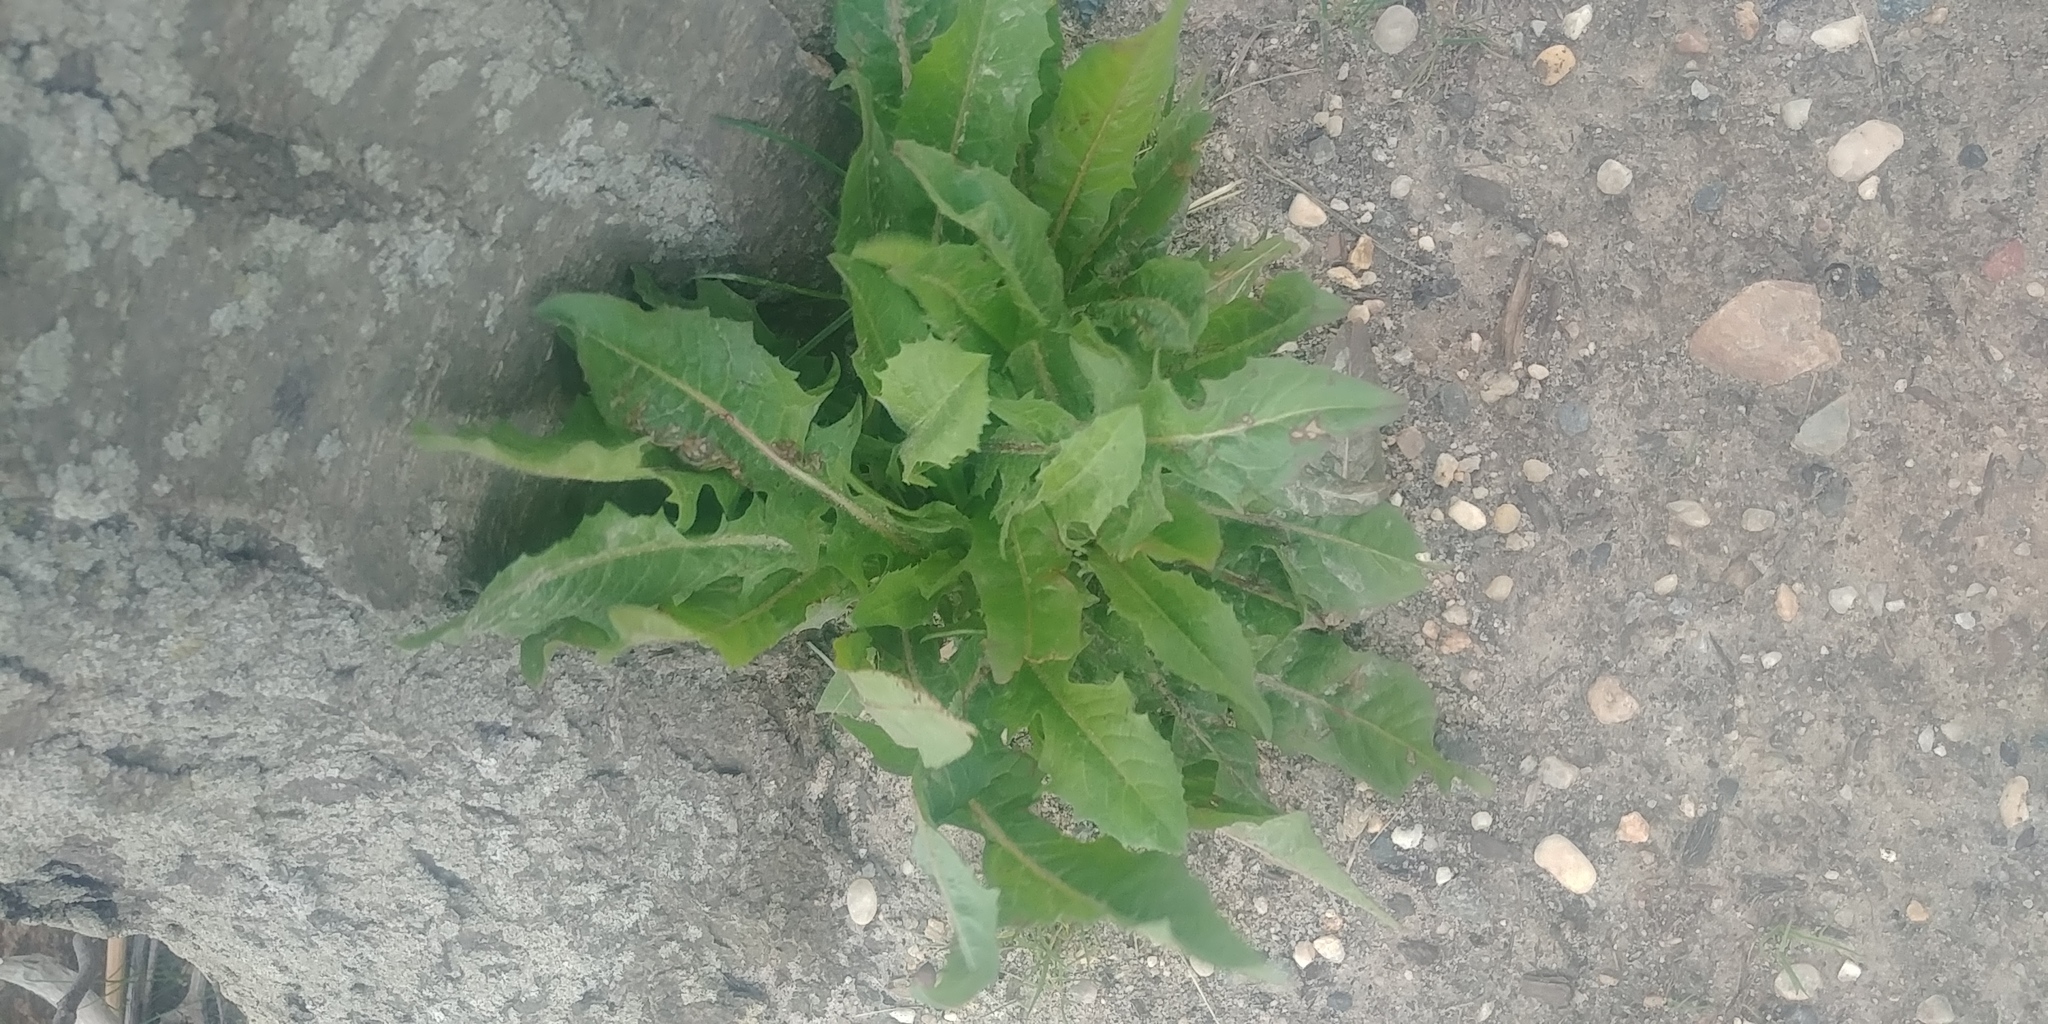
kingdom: Plantae
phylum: Tracheophyta
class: Magnoliopsida
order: Asterales
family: Asteraceae
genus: Taraxacum
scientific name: Taraxacum officinale
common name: Common dandelion
